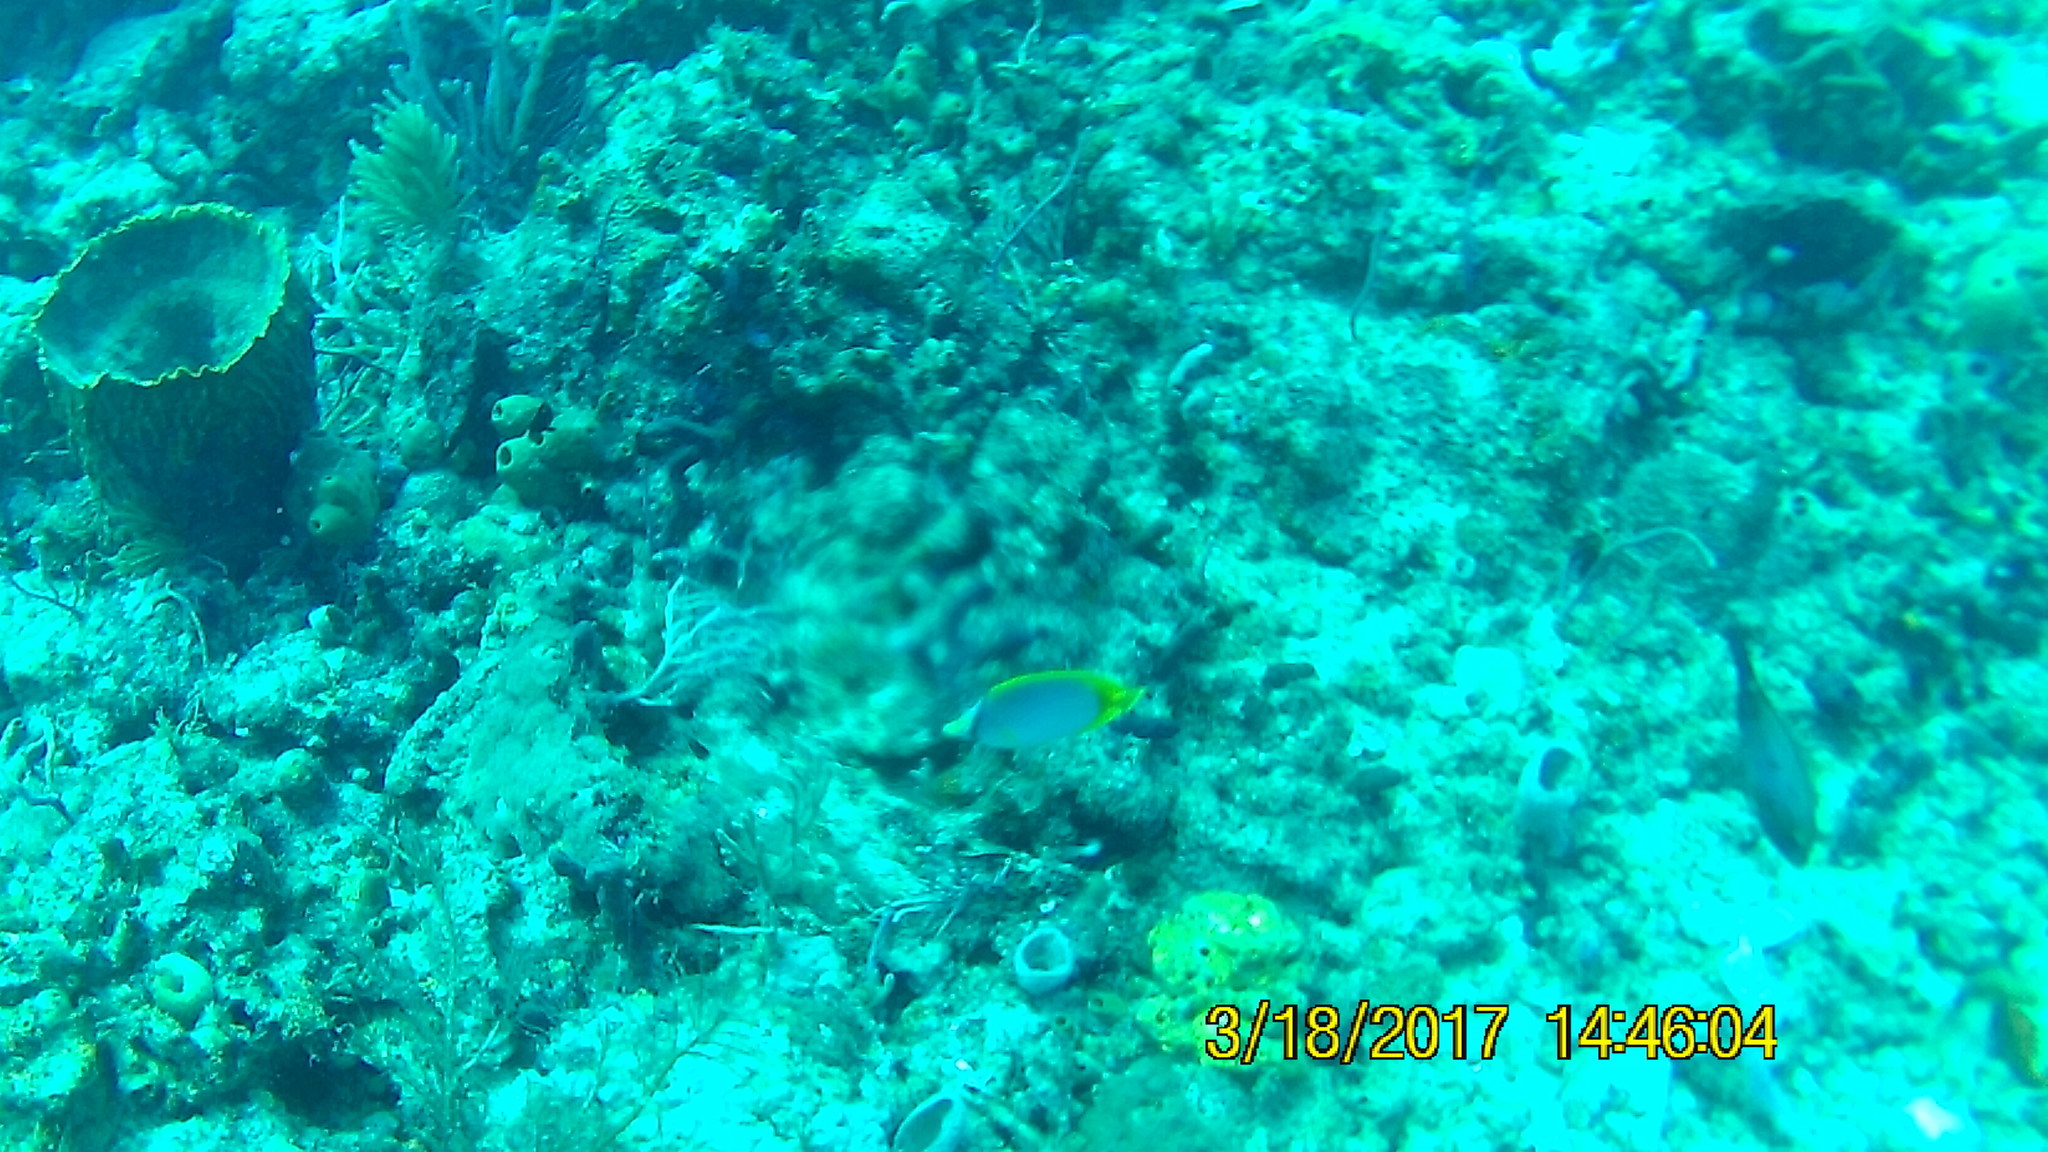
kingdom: Animalia
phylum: Chordata
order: Perciformes
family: Chaetodontidae
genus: Chaetodon
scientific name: Chaetodon ocellatus
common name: Spotfin butterflyfish
